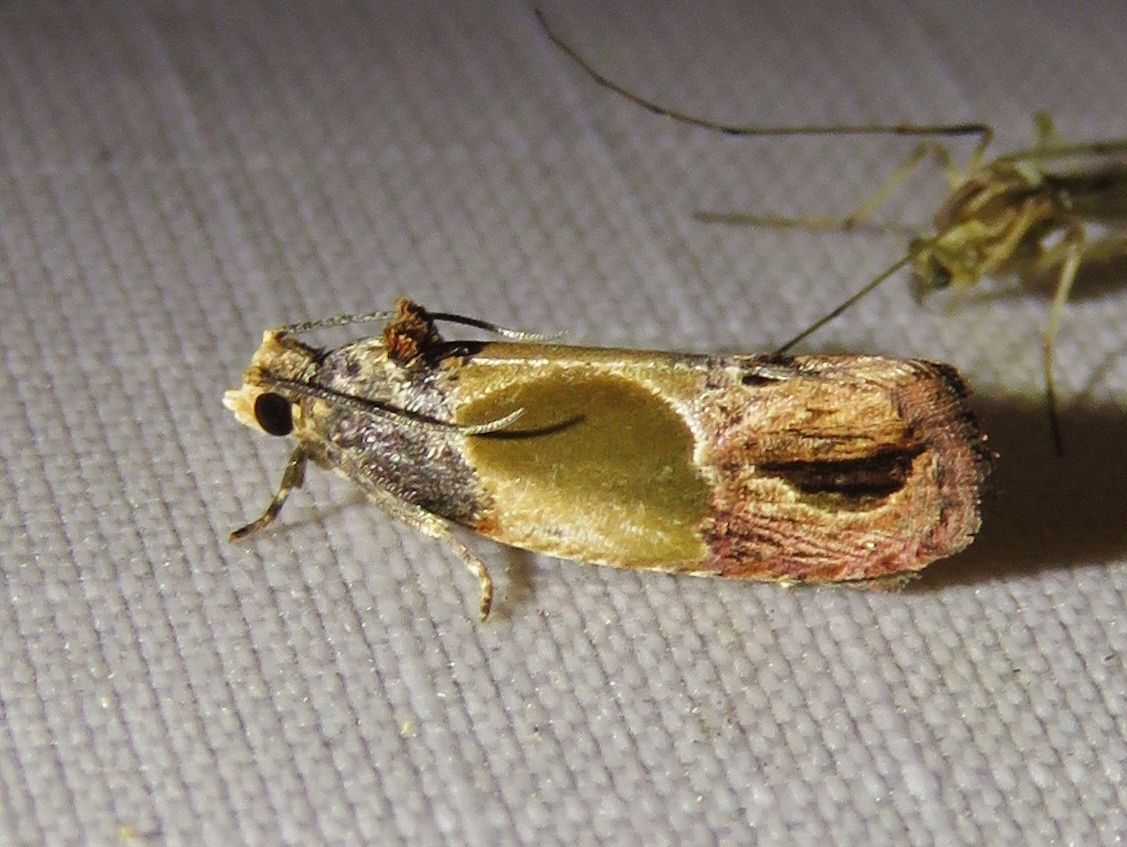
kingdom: Animalia
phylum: Arthropoda
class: Insecta
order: Lepidoptera
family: Tortricidae
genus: Eumarozia
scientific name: Eumarozia malachitana
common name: Sculptured moth
